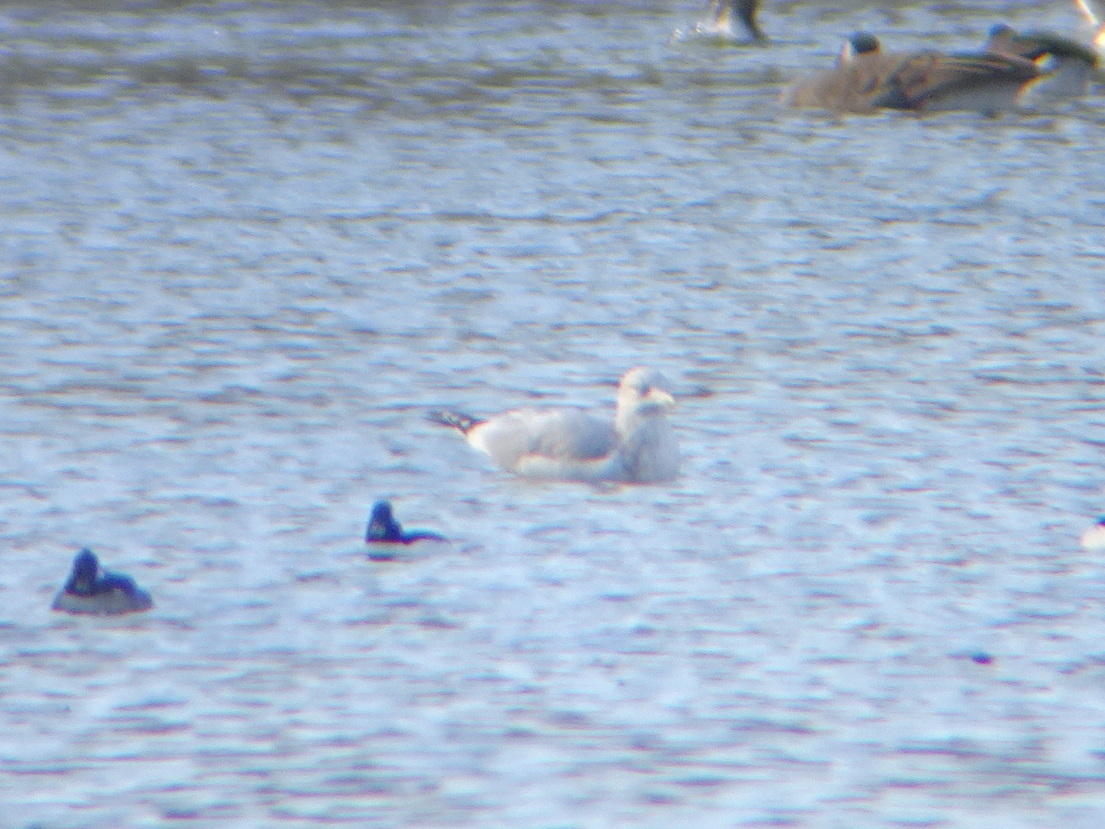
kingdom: Animalia
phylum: Chordata
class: Aves
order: Charadriiformes
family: Laridae
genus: Larus
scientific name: Larus smithsonianus
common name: American herring gull
